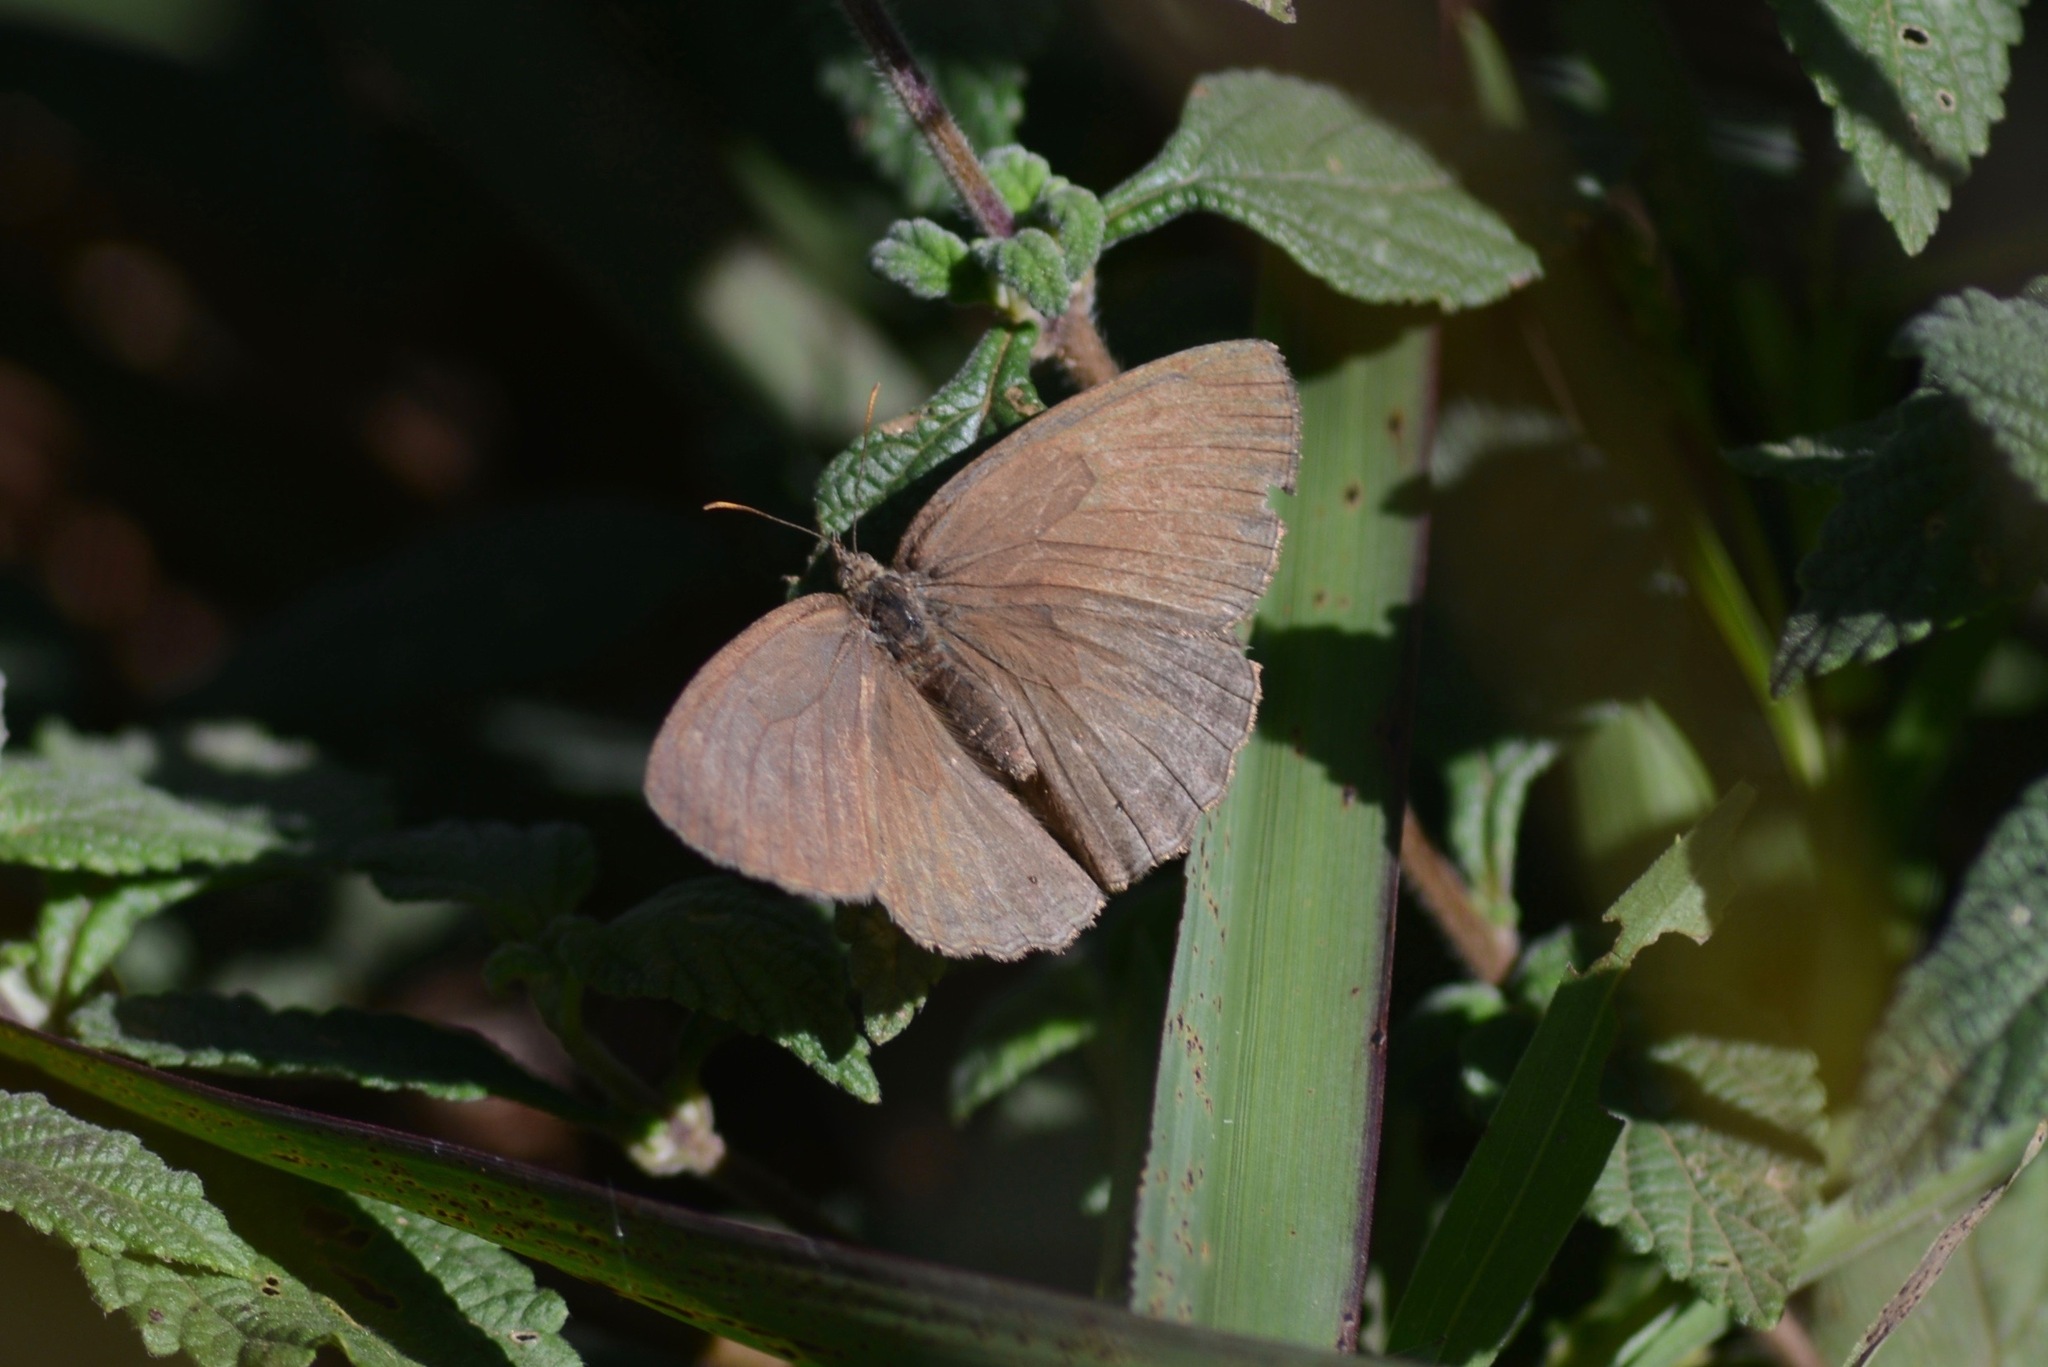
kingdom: Animalia
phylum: Arthropoda
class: Insecta
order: Lepidoptera
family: Nymphalidae
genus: Yphthimoides
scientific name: Yphthimoides celmis
